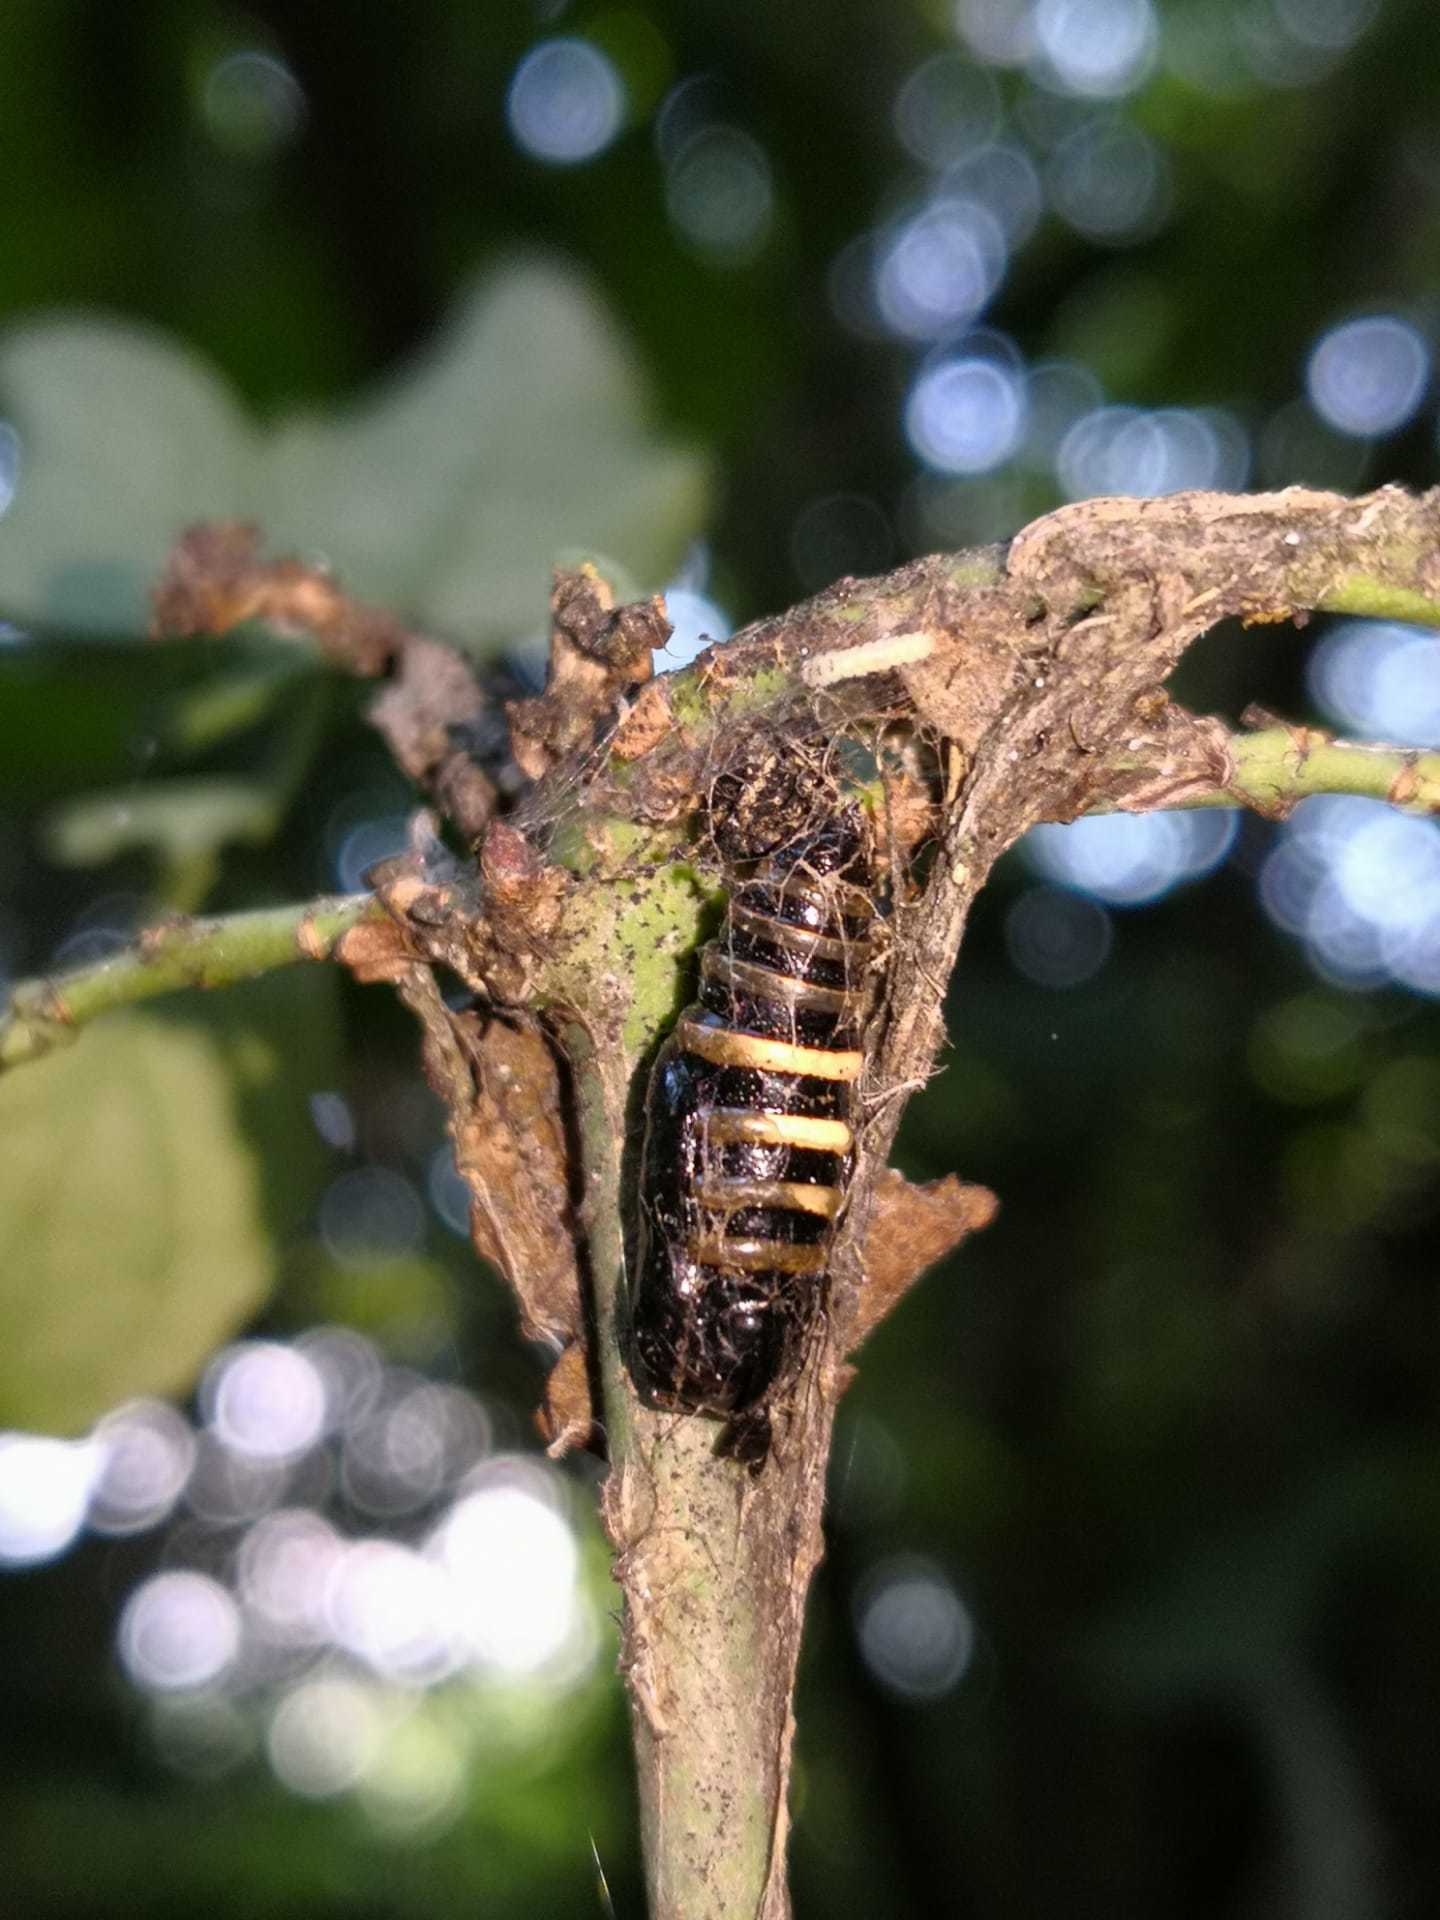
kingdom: Animalia
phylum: Arthropoda
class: Insecta
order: Lepidoptera
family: Geometridae
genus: Abraxas
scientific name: Abraxas grossulariata
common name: Magpie
